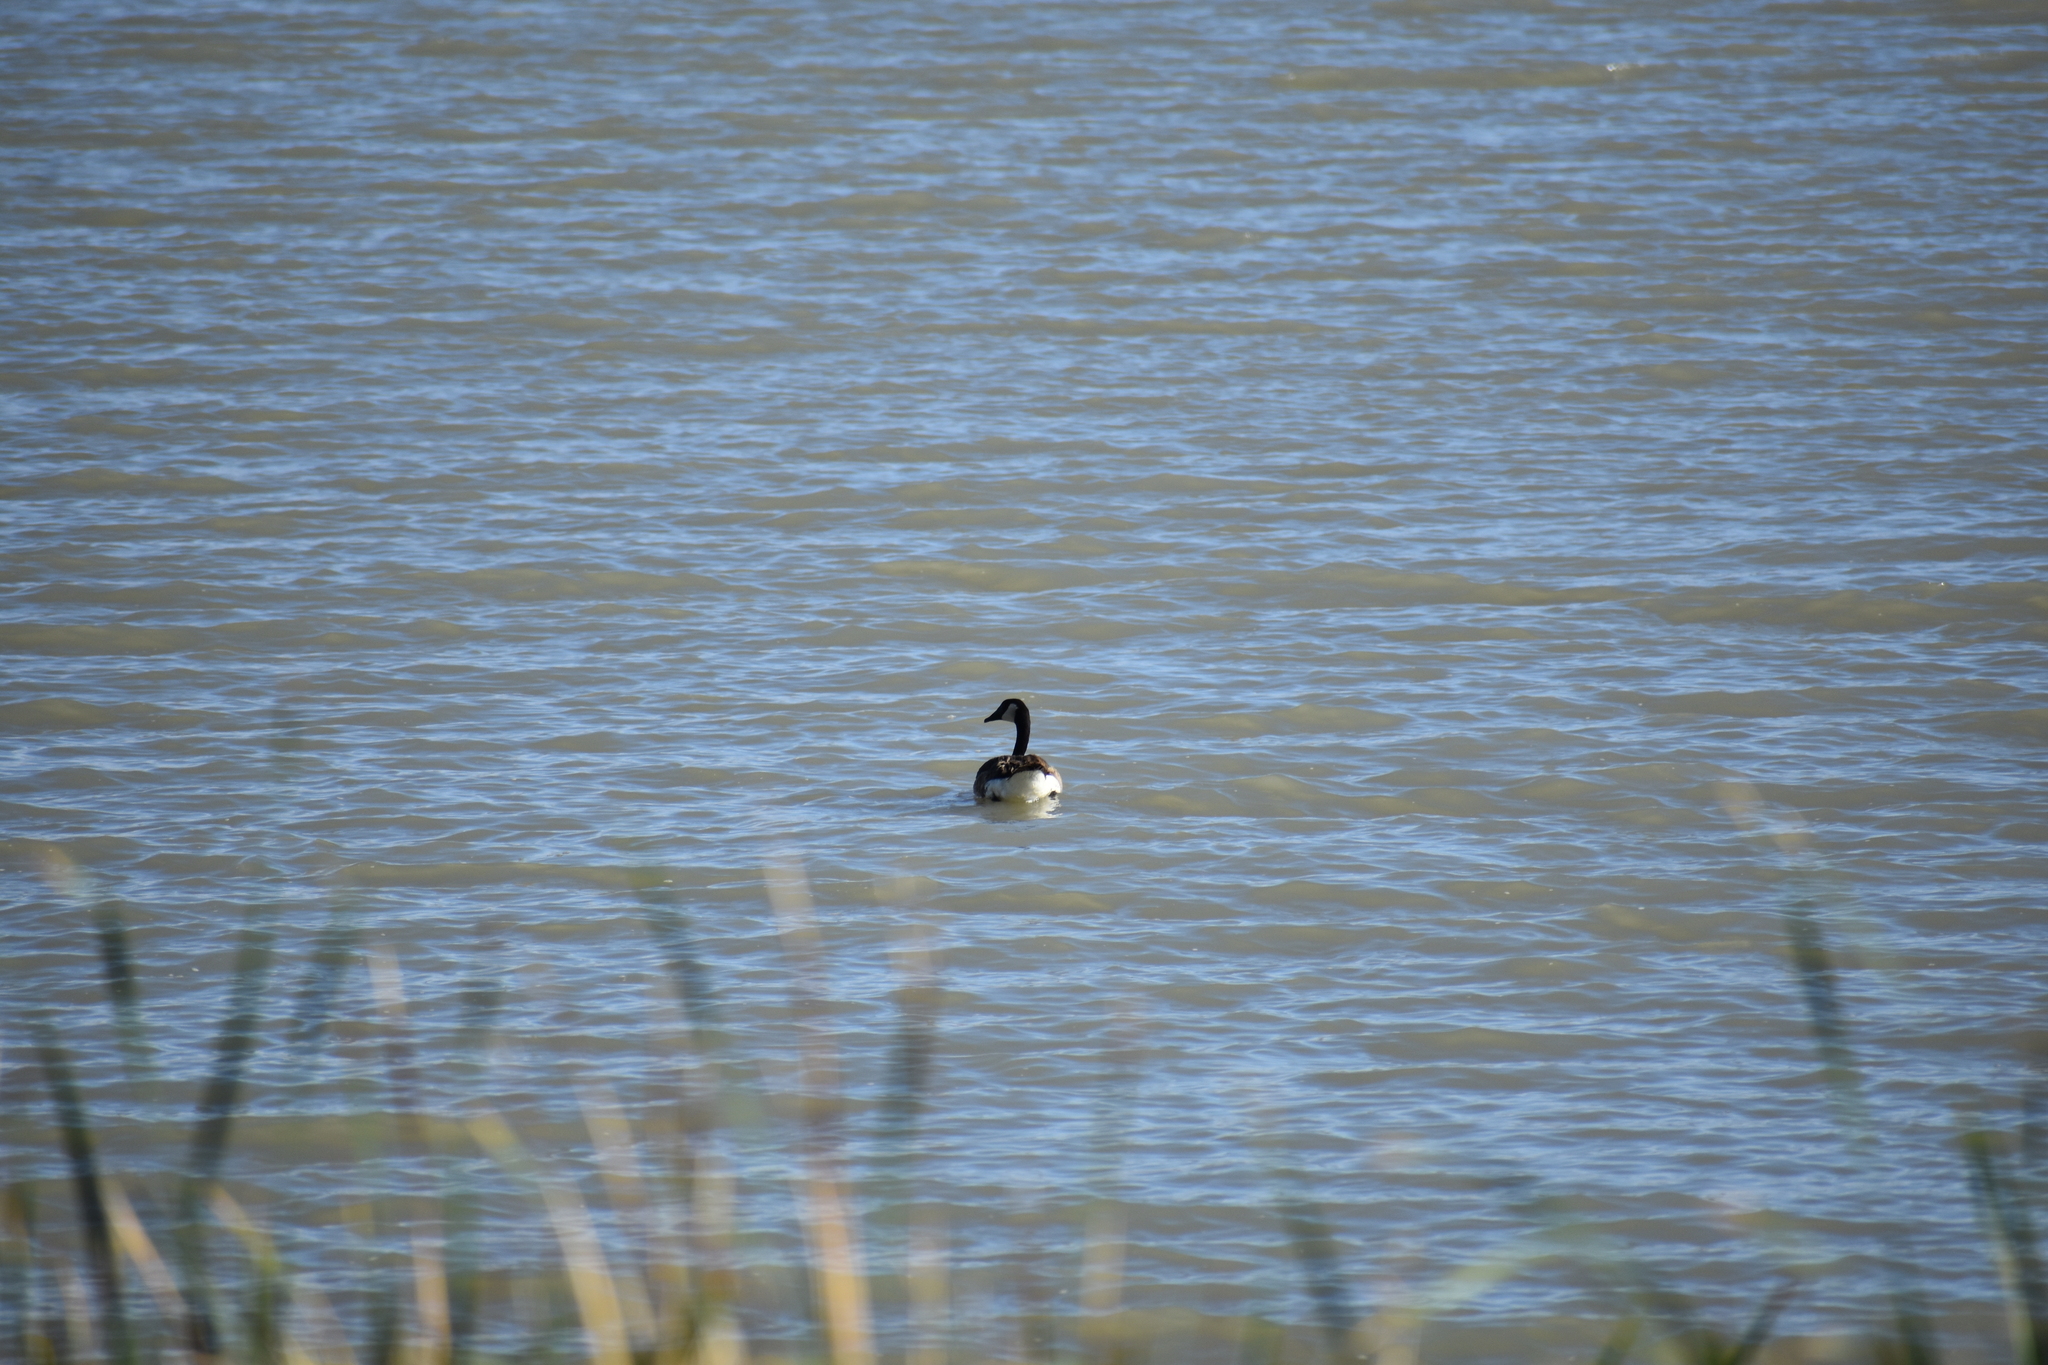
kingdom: Animalia
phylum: Chordata
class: Aves
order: Anseriformes
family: Anatidae
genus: Branta
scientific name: Branta canadensis
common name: Canada goose
